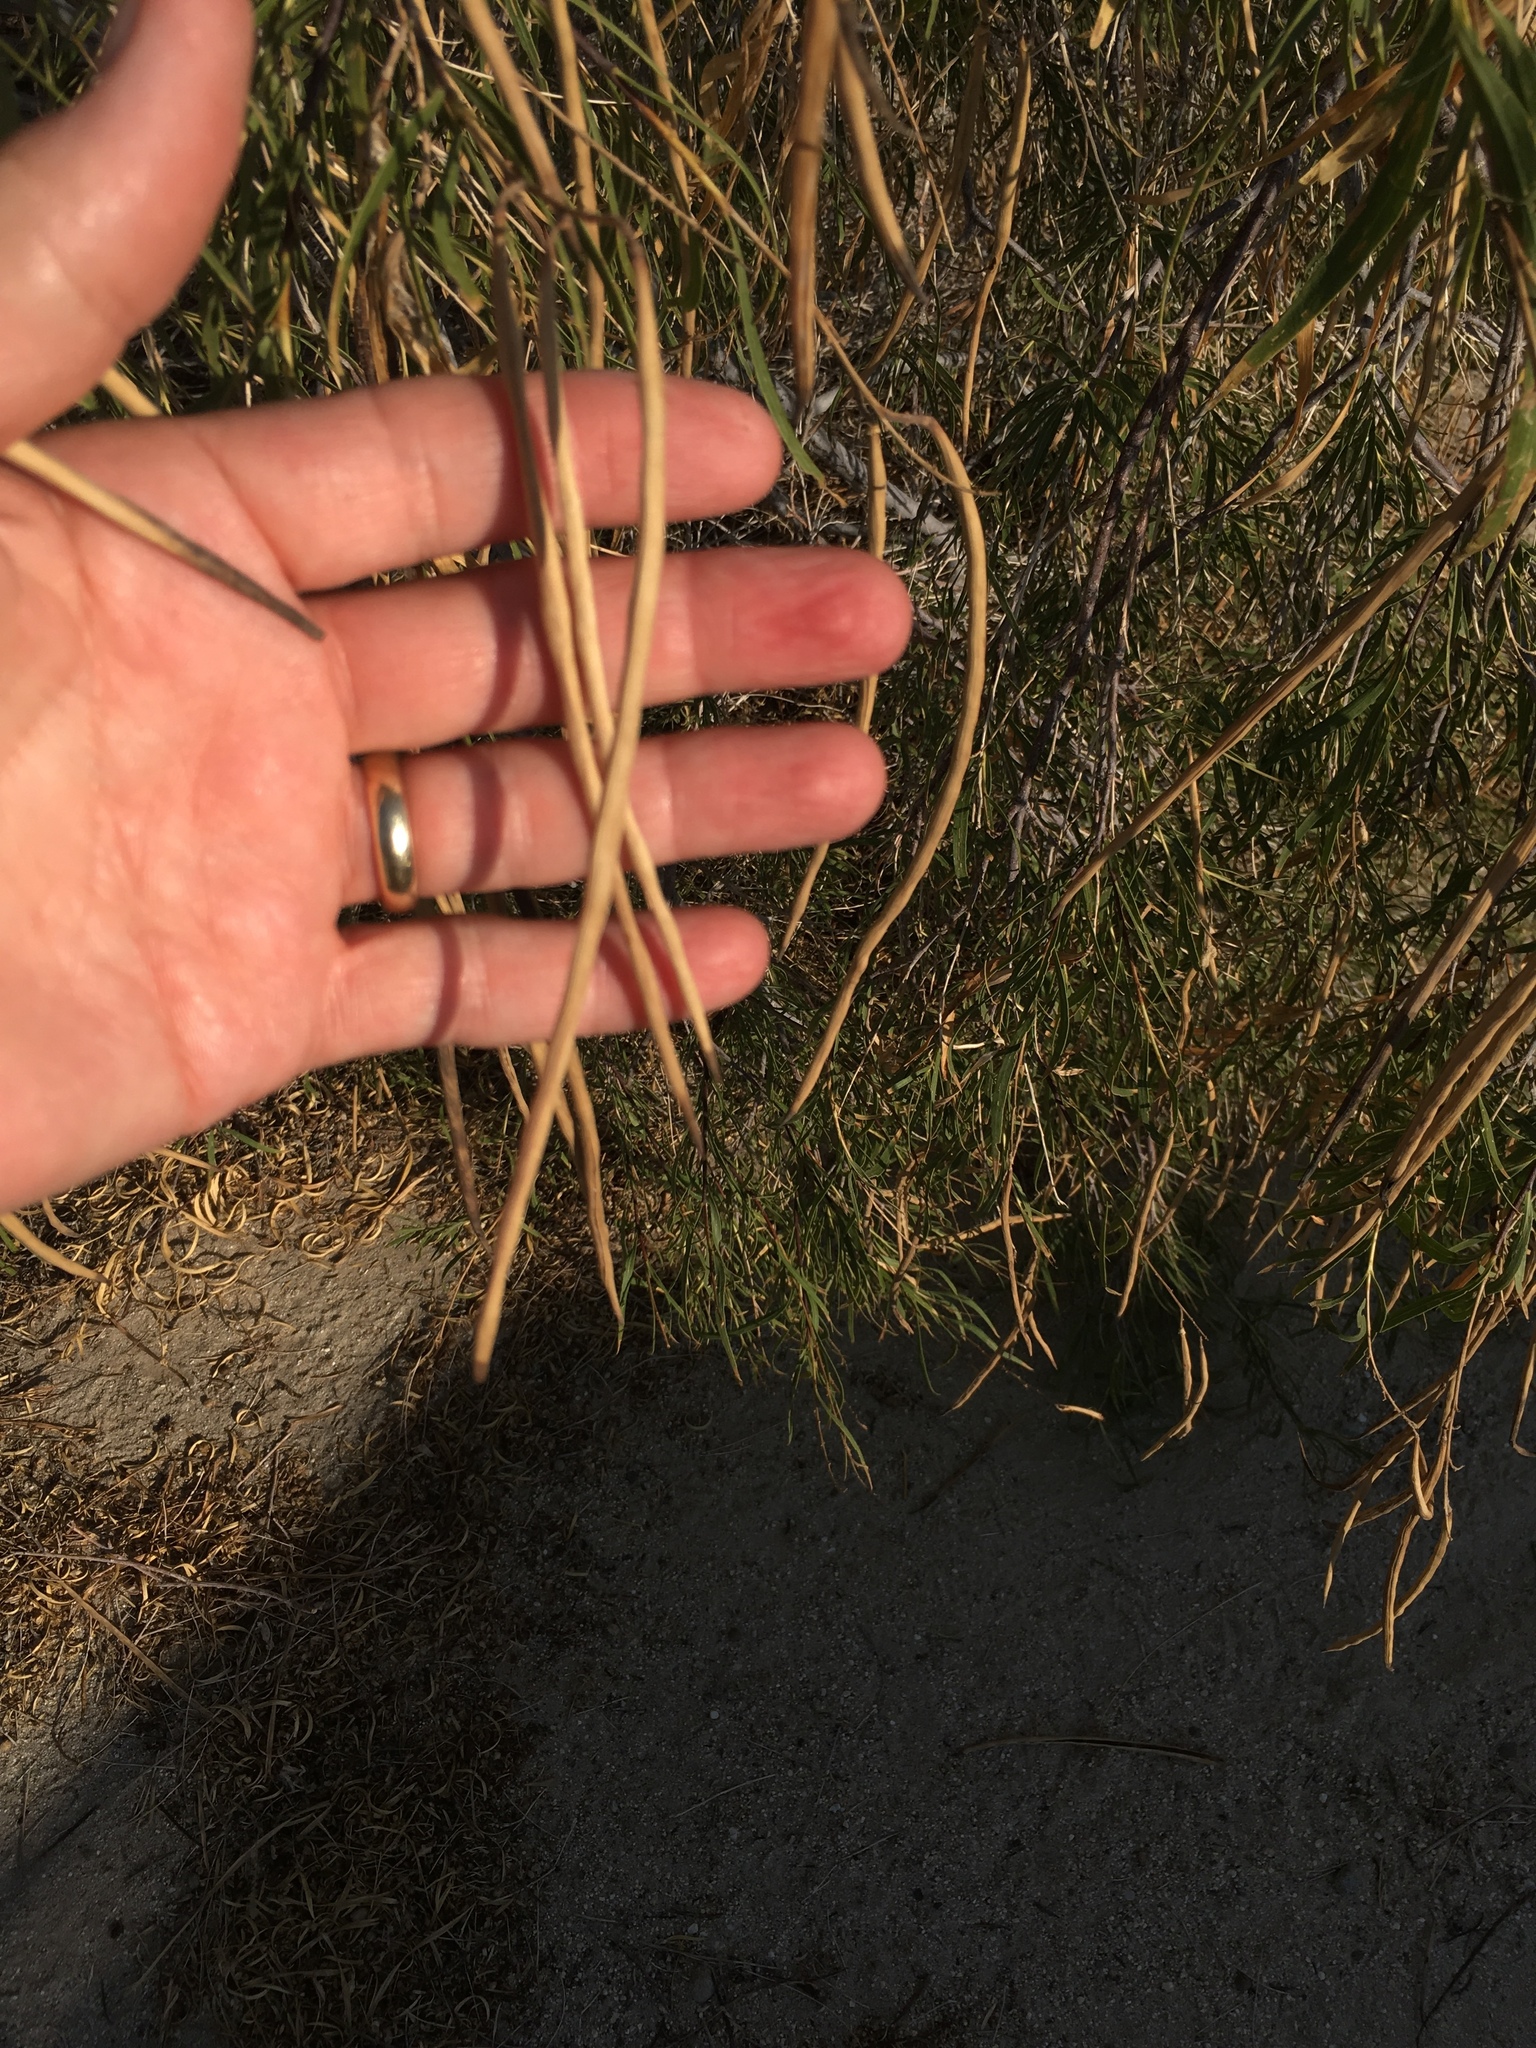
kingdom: Plantae
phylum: Tracheophyta
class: Magnoliopsida
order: Lamiales
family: Bignoniaceae
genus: Chilopsis
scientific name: Chilopsis linearis
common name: Desert-willow
